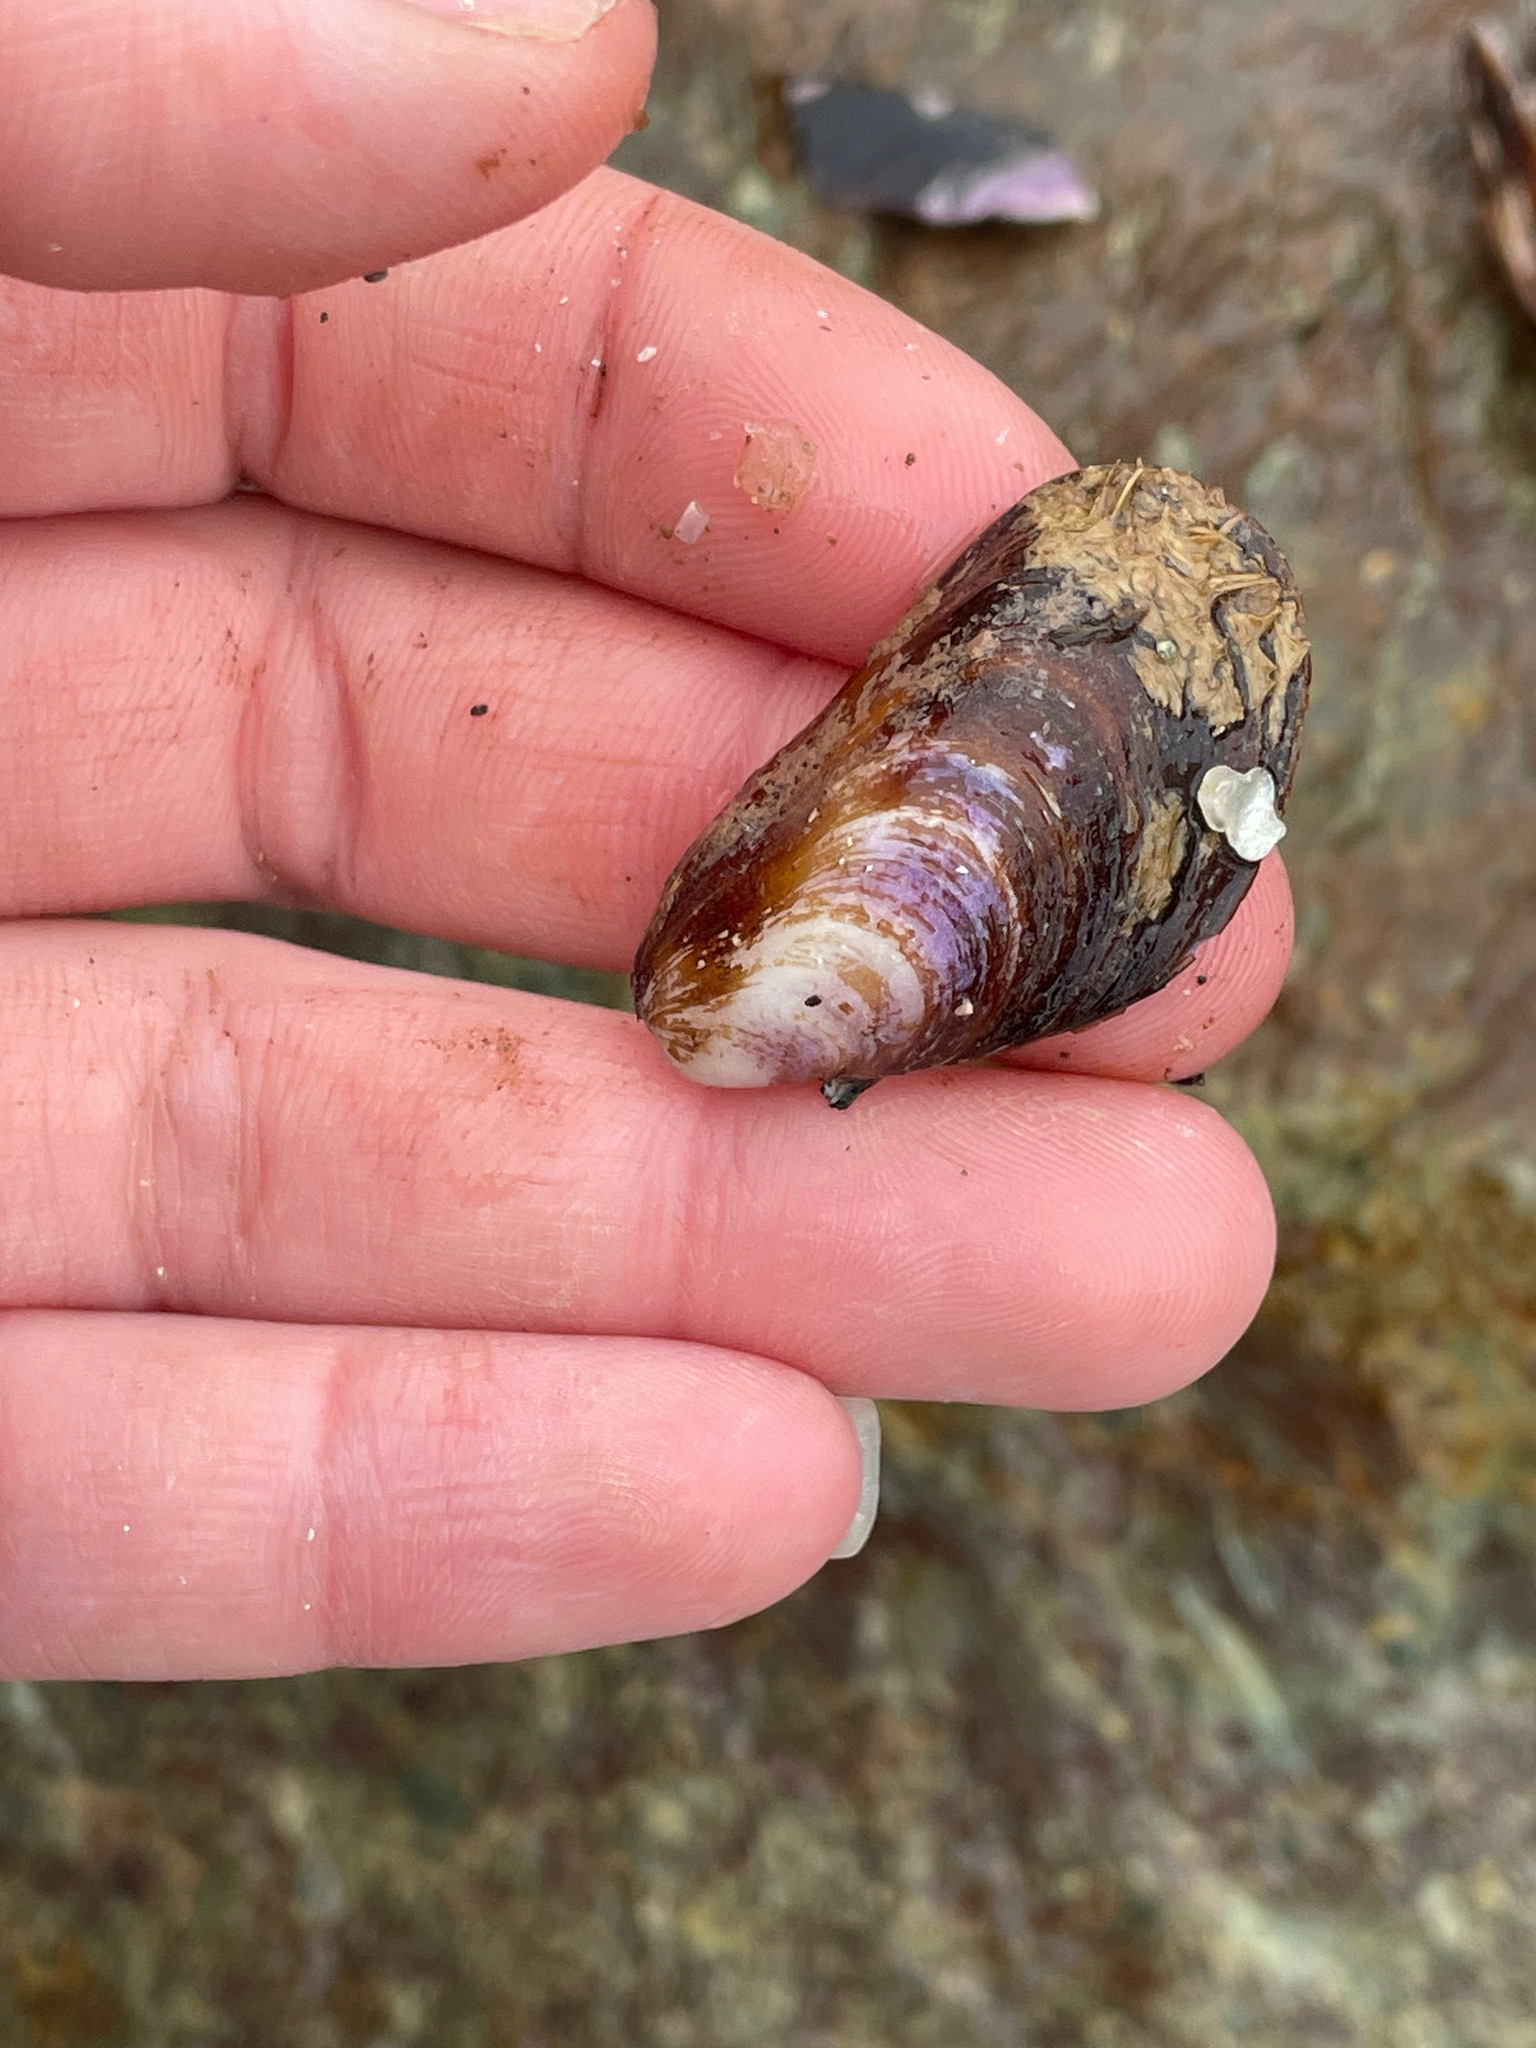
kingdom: Animalia
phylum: Mollusca
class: Bivalvia
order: Mytilida
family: Mytilidae
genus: Modiolus
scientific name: Modiolus modiolus
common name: Horse-mussel
